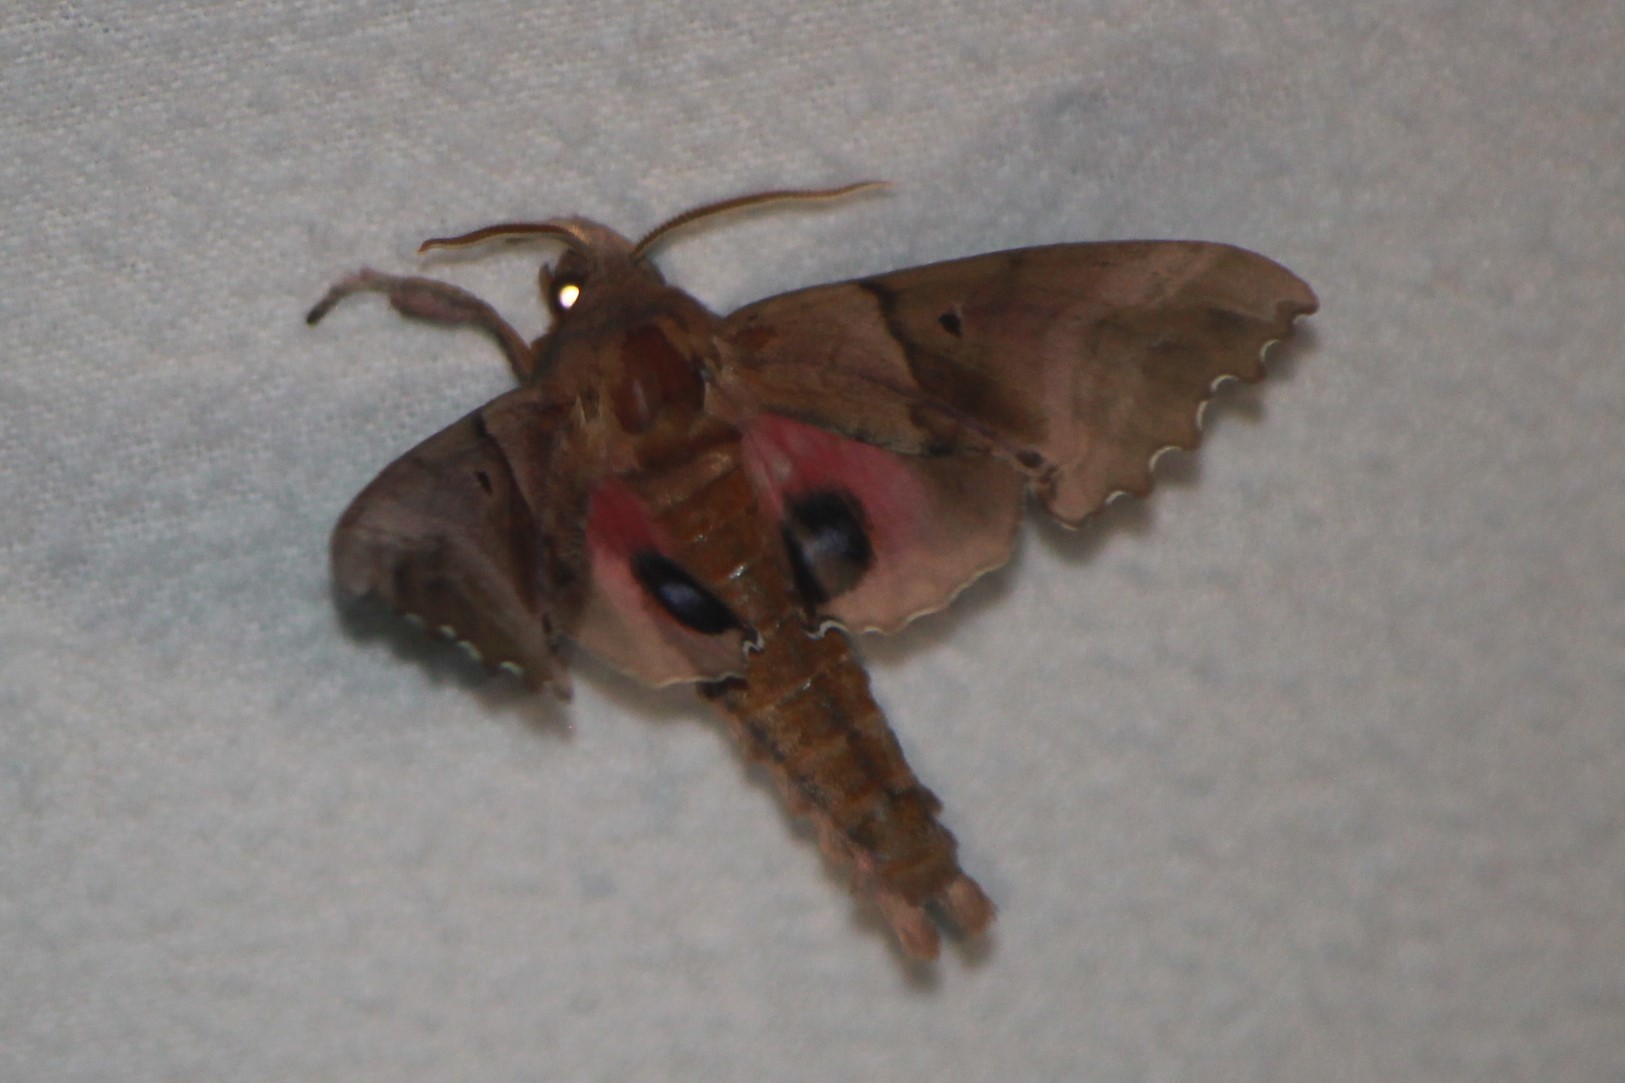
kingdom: Animalia
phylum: Arthropoda
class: Insecta
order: Lepidoptera
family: Sphingidae
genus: Paonias
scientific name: Paonias excaecata
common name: Blind-eyed sphinx
